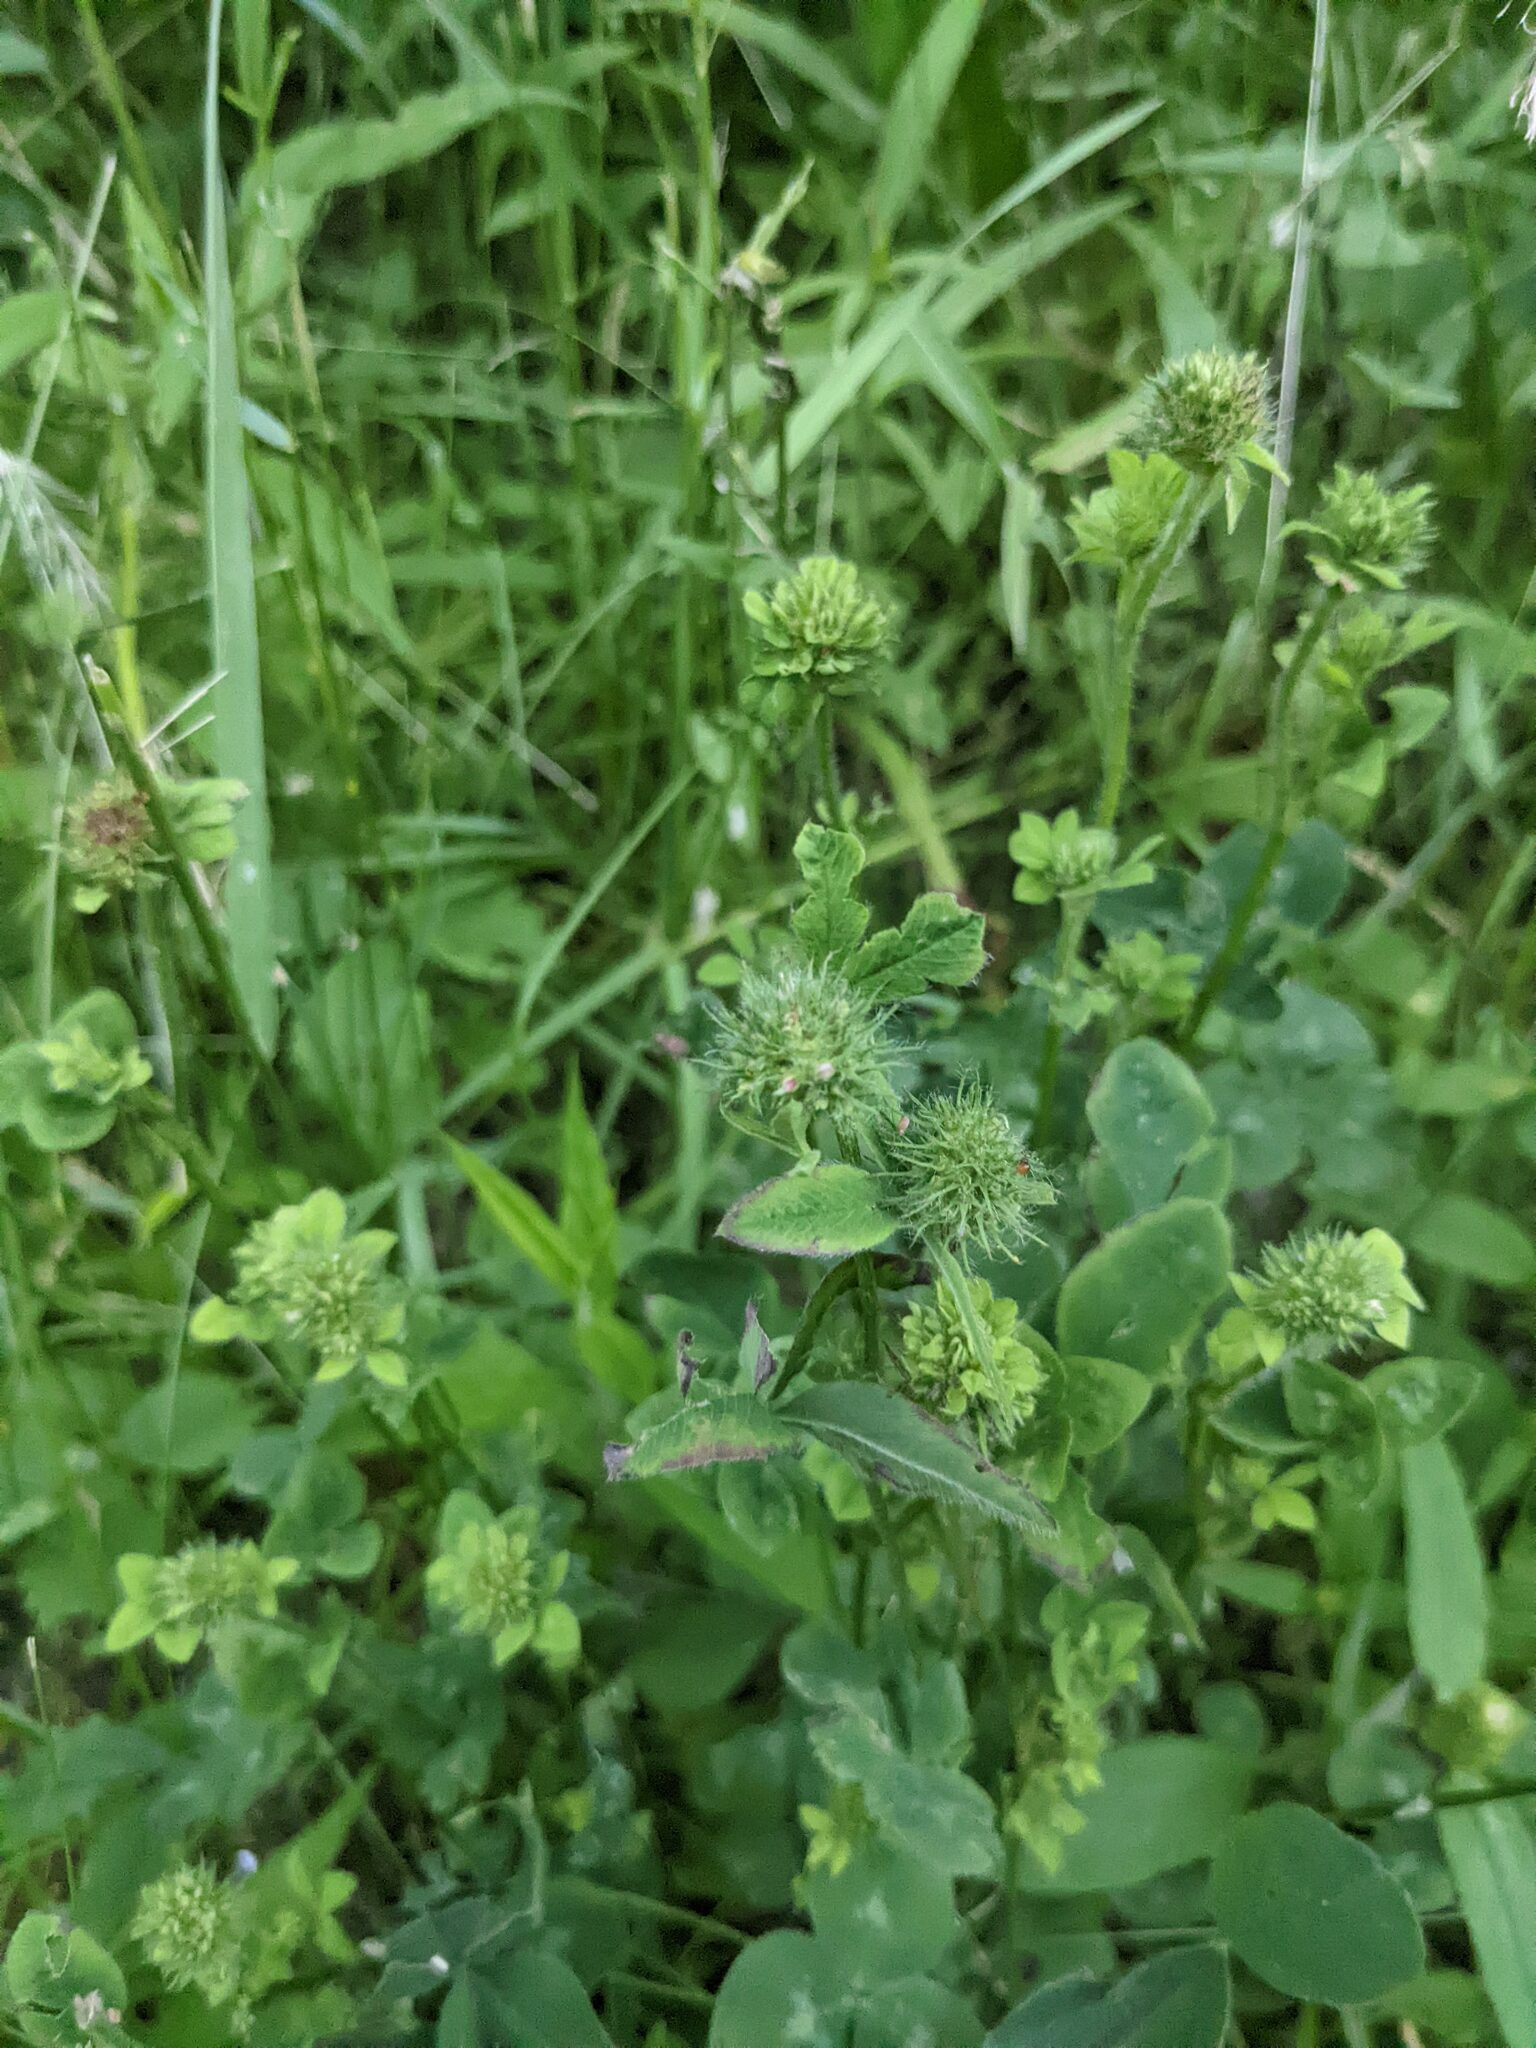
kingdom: Plantae
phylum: Tracheophyta
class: Magnoliopsida
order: Fabales
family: Fabaceae
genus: Trifolium
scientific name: Trifolium pratense
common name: Red clover
